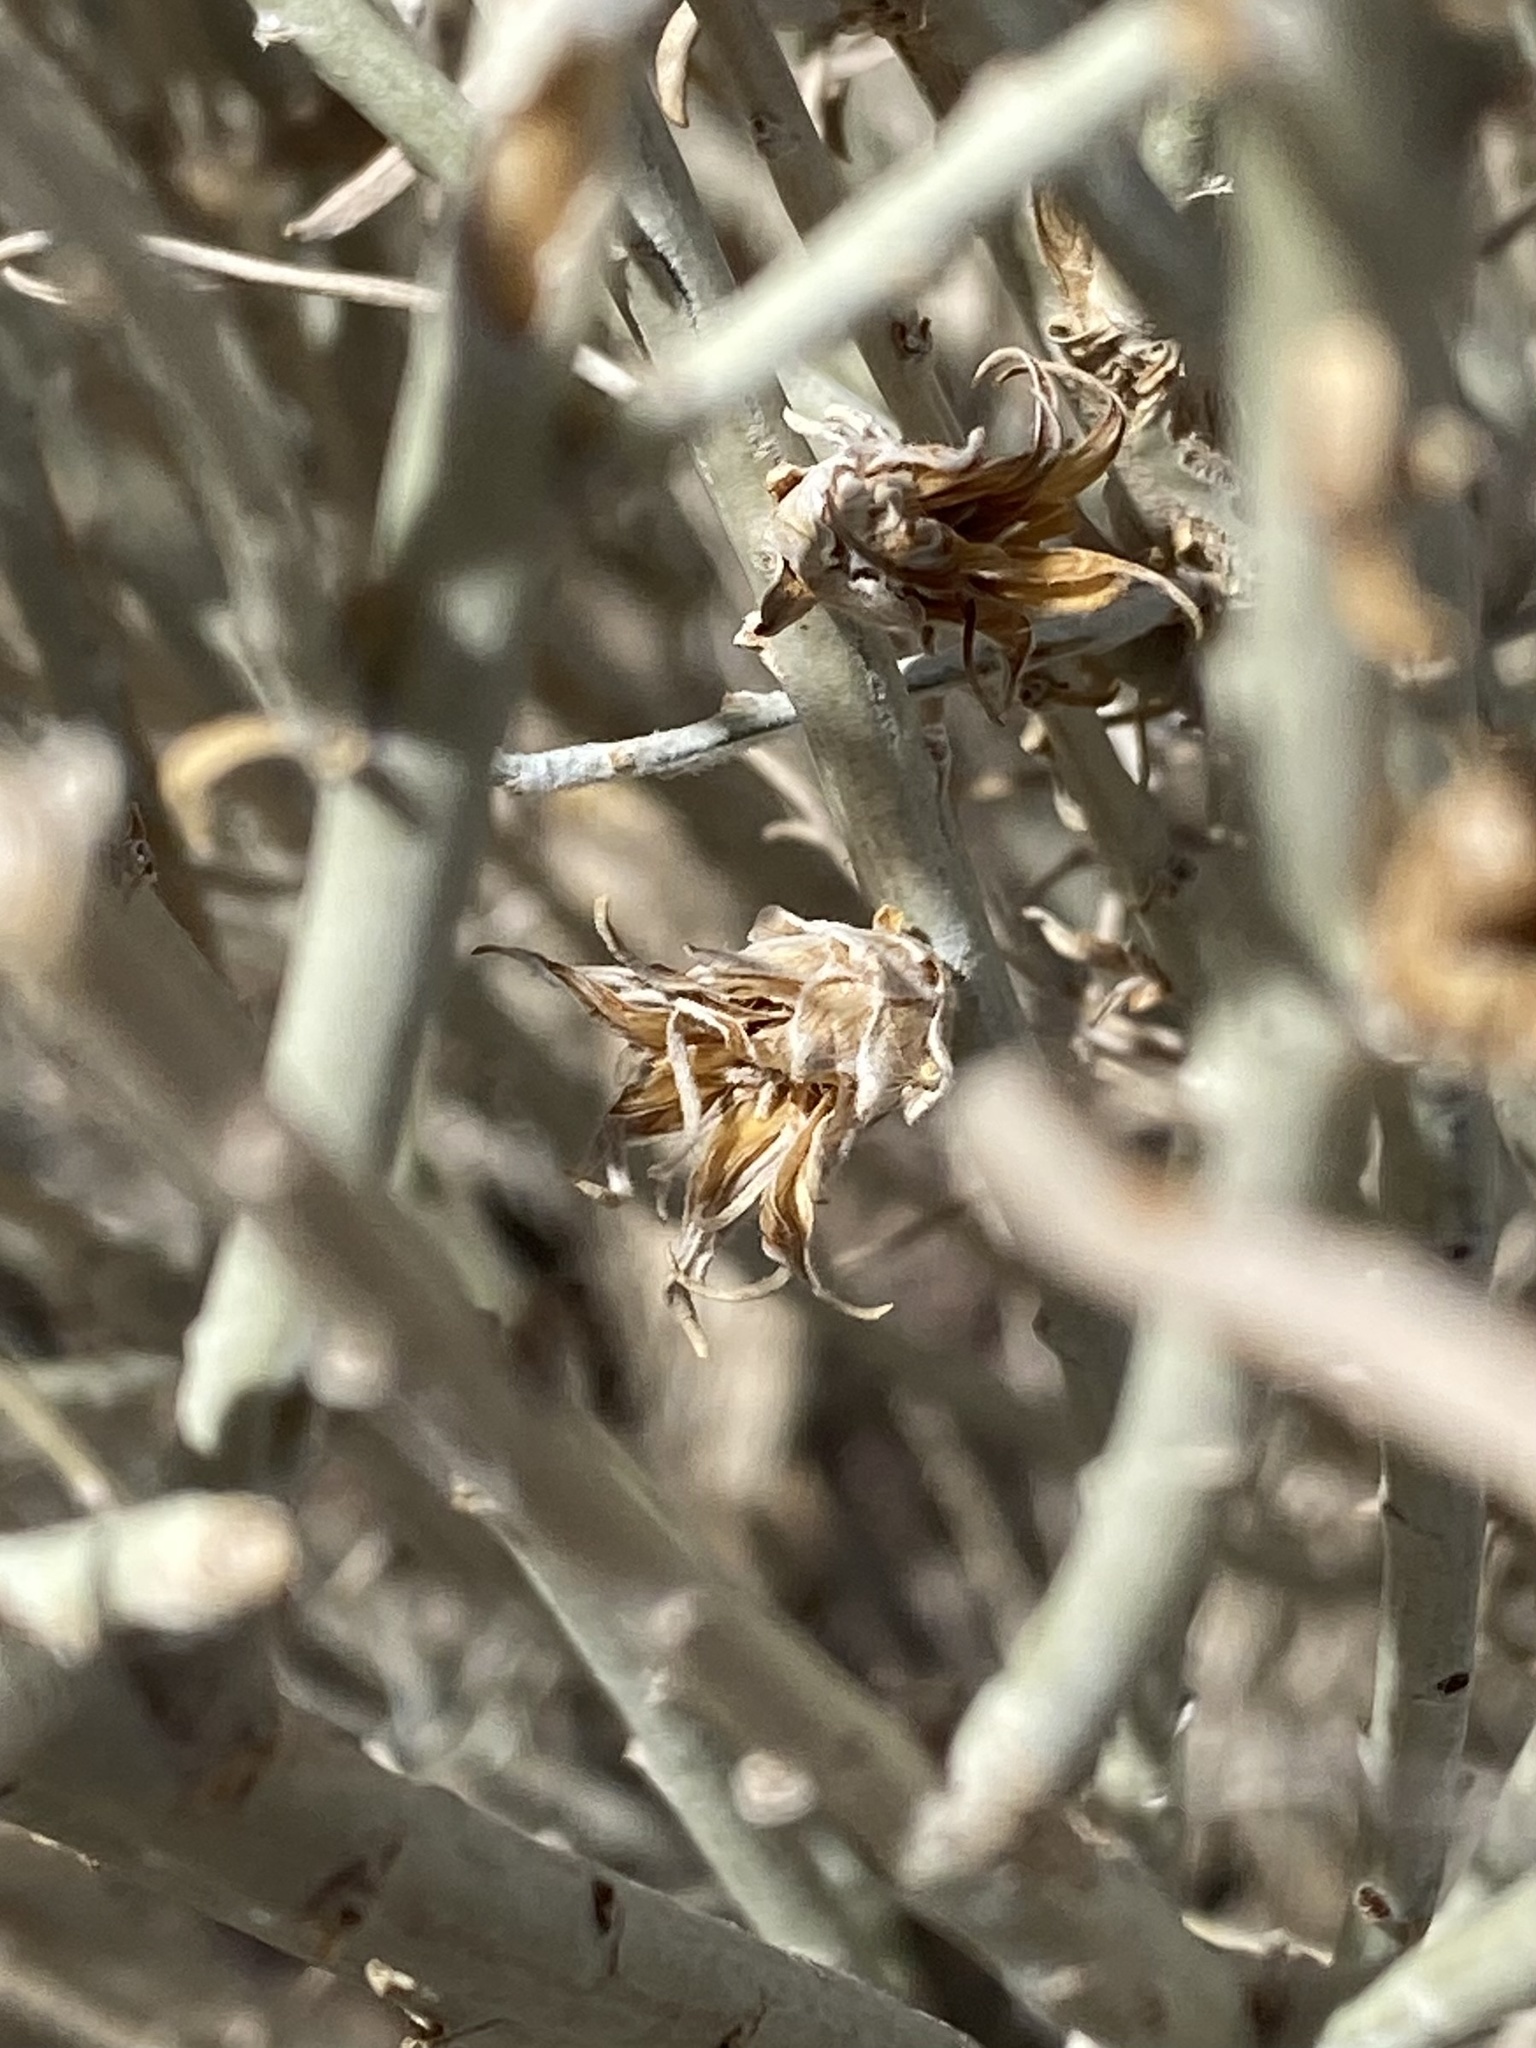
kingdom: Animalia
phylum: Arthropoda
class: Insecta
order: Diptera
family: Cecidomyiidae
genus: Rhopalomyia
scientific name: Rhopalomyia ericameriae
